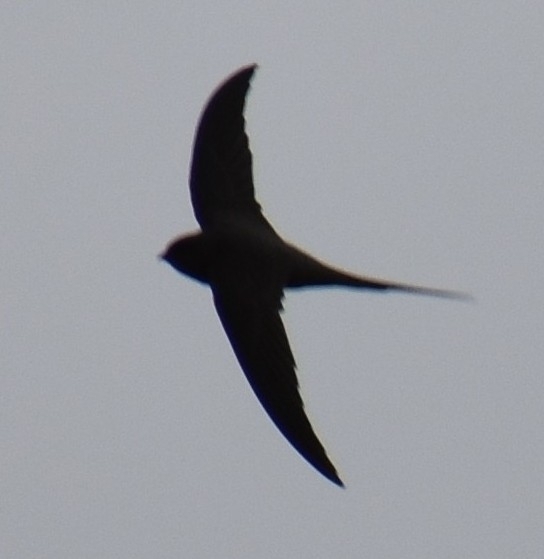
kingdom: Animalia
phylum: Chordata
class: Aves
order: Apodiformes
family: Apodidae
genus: Cypsiurus
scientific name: Cypsiurus parvus
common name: African palm swift
